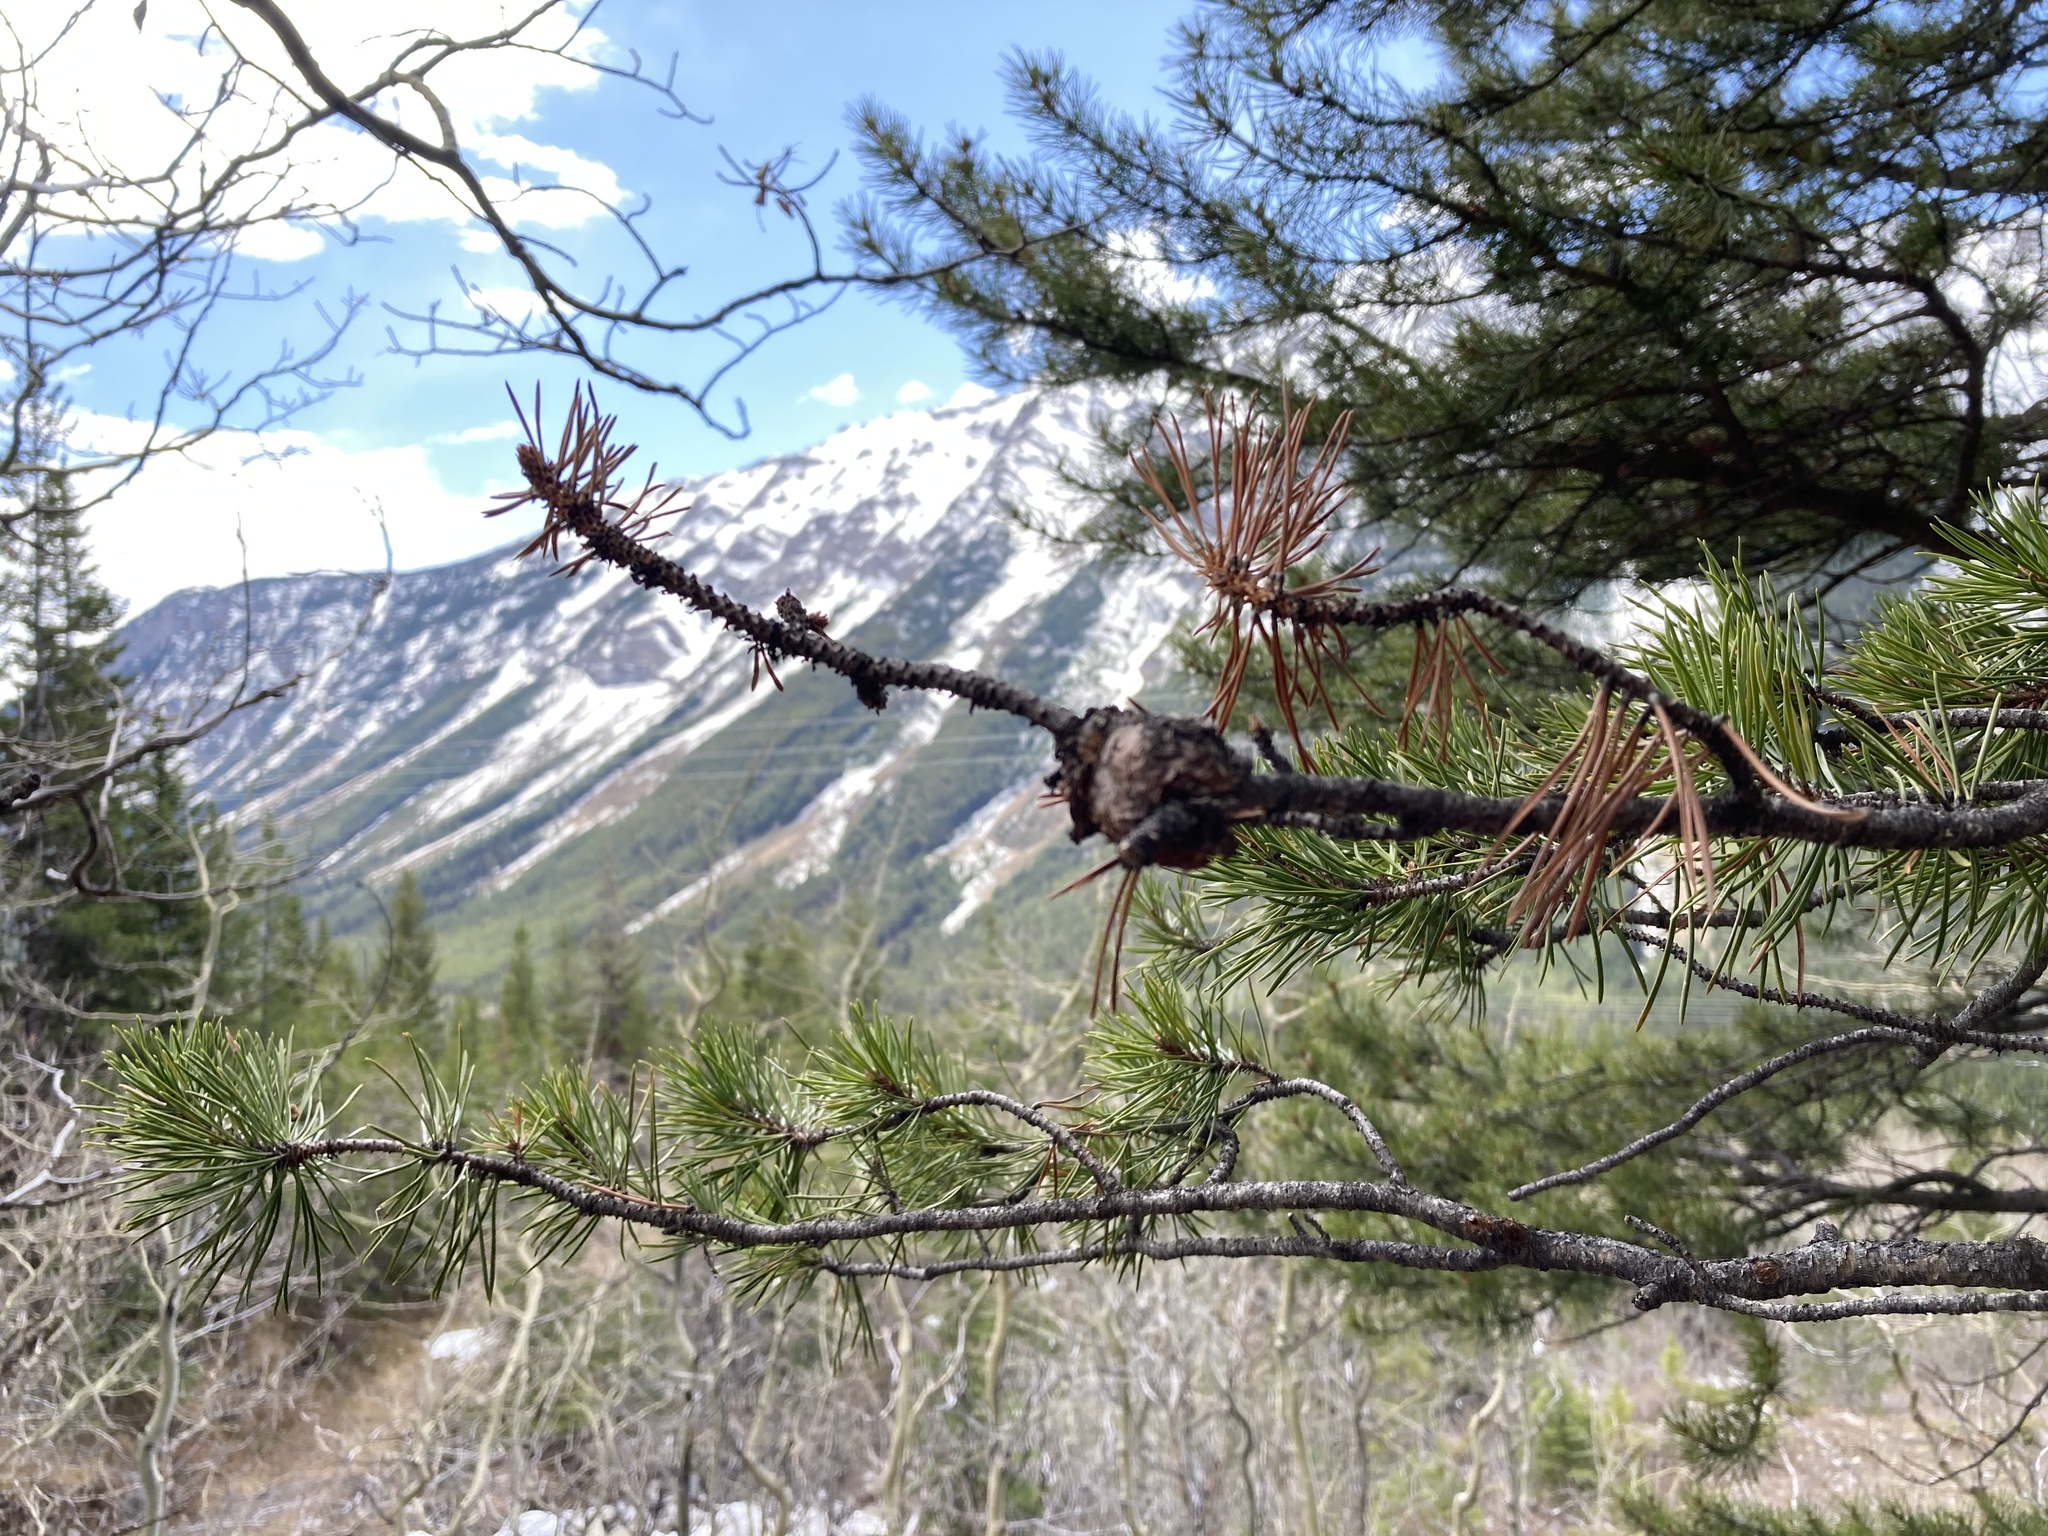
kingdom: Fungi
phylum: Basidiomycota
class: Pucciniomycetes
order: Pucciniales
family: Cronartiaceae
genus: Cronartium
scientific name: Cronartium harknessii
